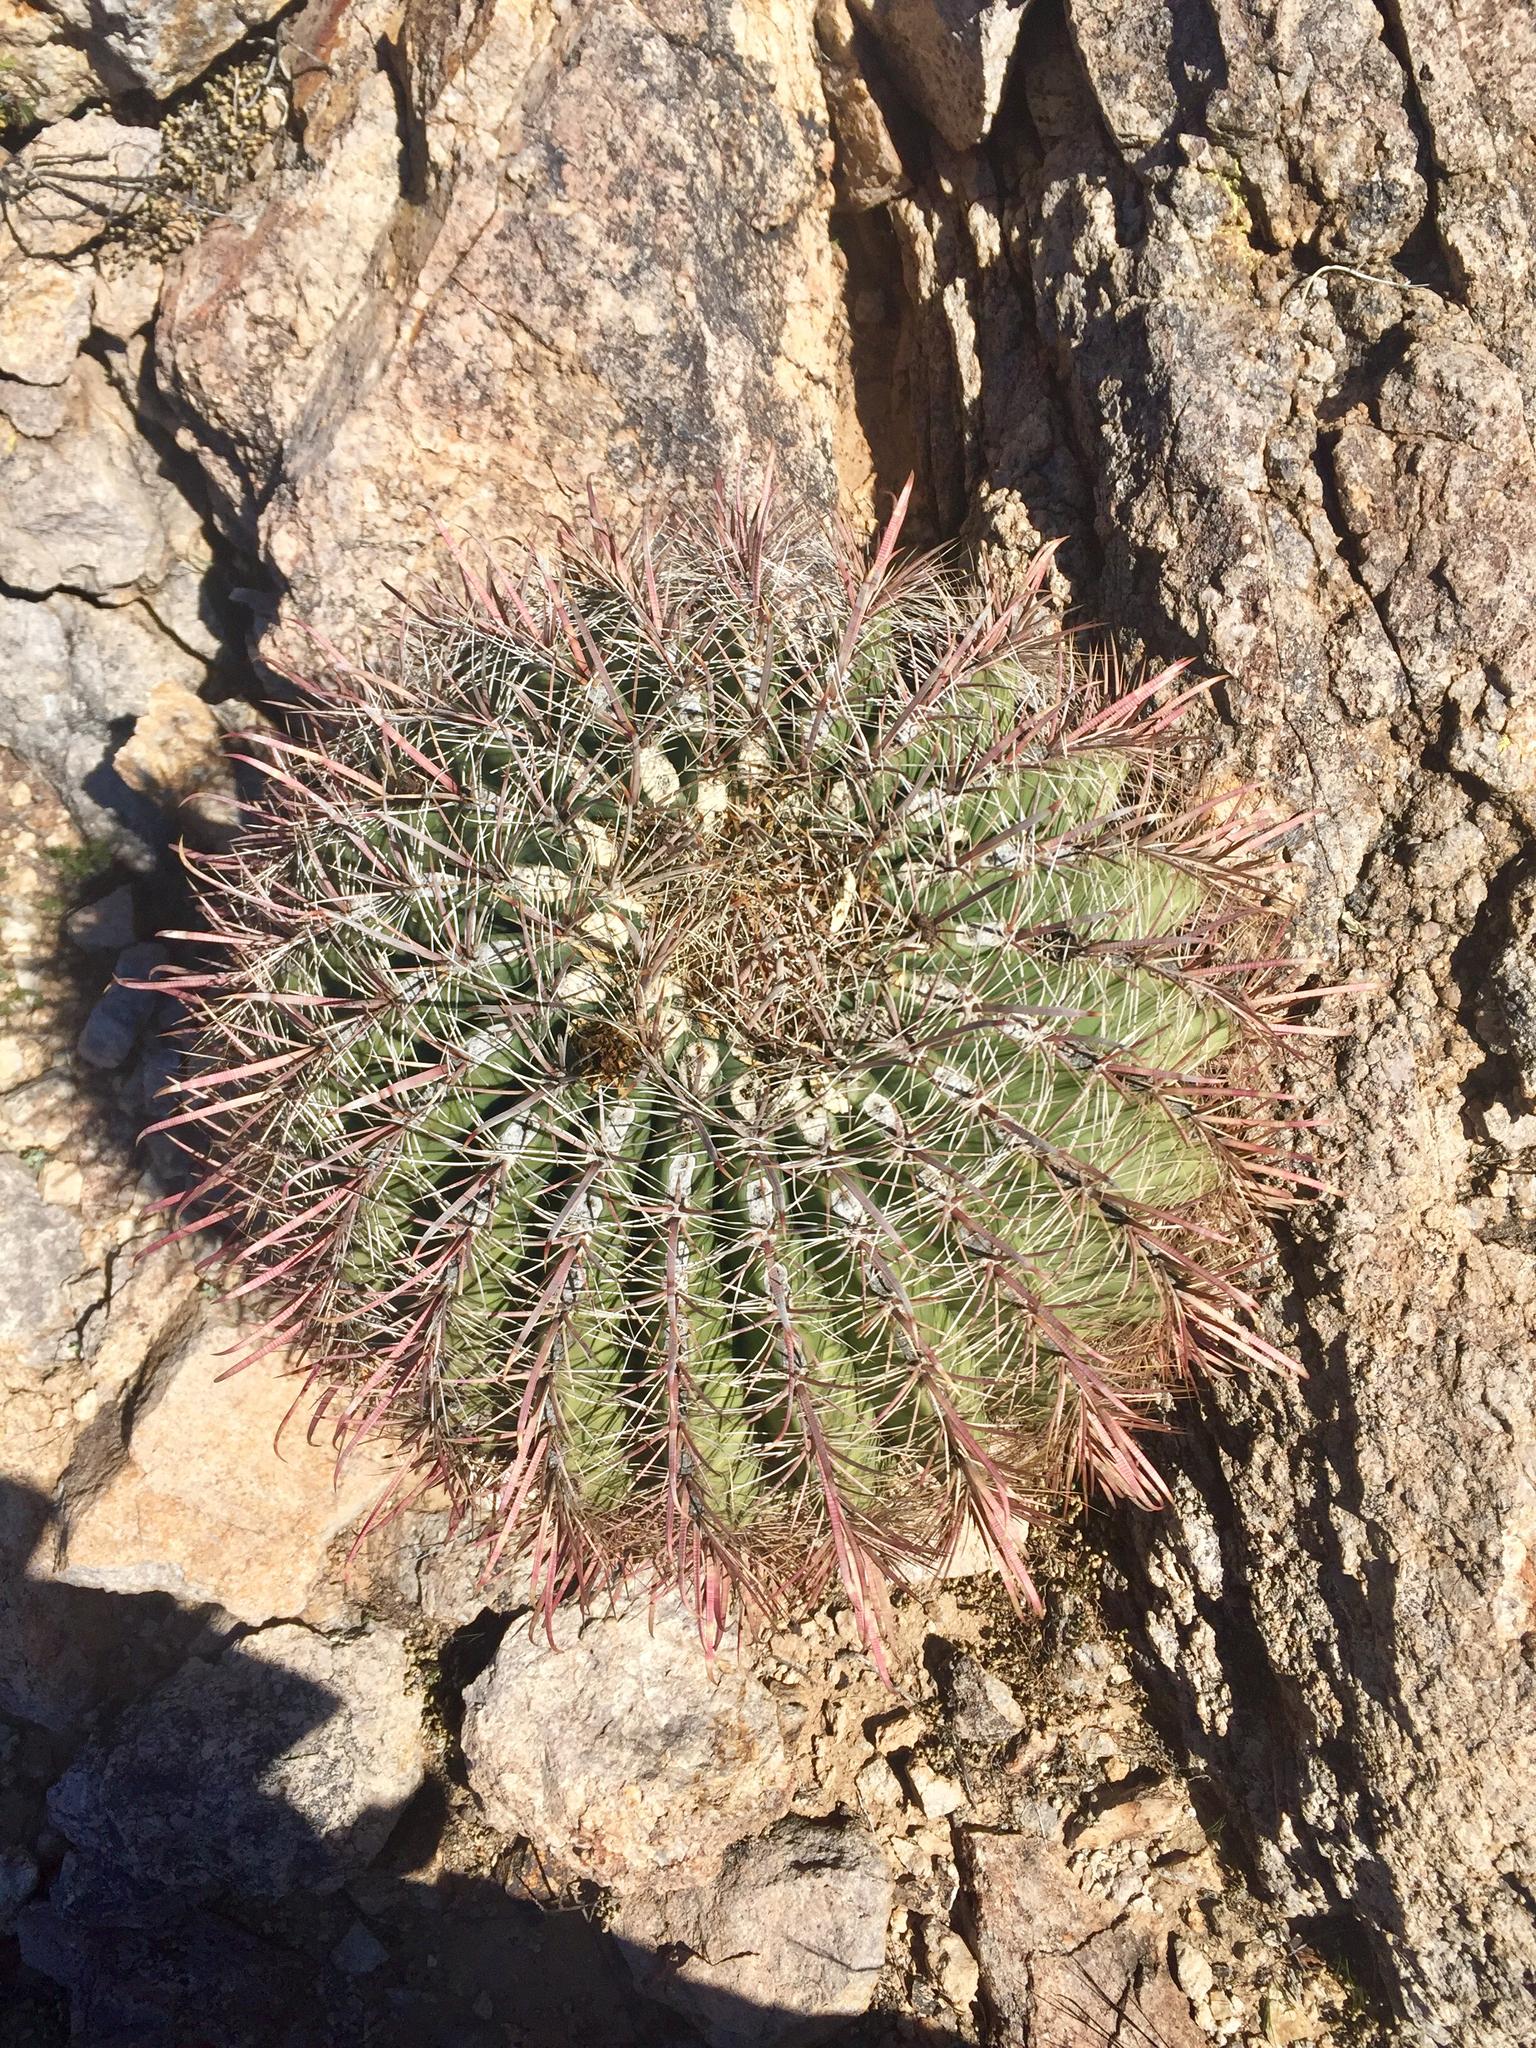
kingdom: Plantae
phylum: Tracheophyta
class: Magnoliopsida
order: Caryophyllales
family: Cactaceae
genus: Ferocactus
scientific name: Ferocactus wislizeni
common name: Candy barrel cactus
